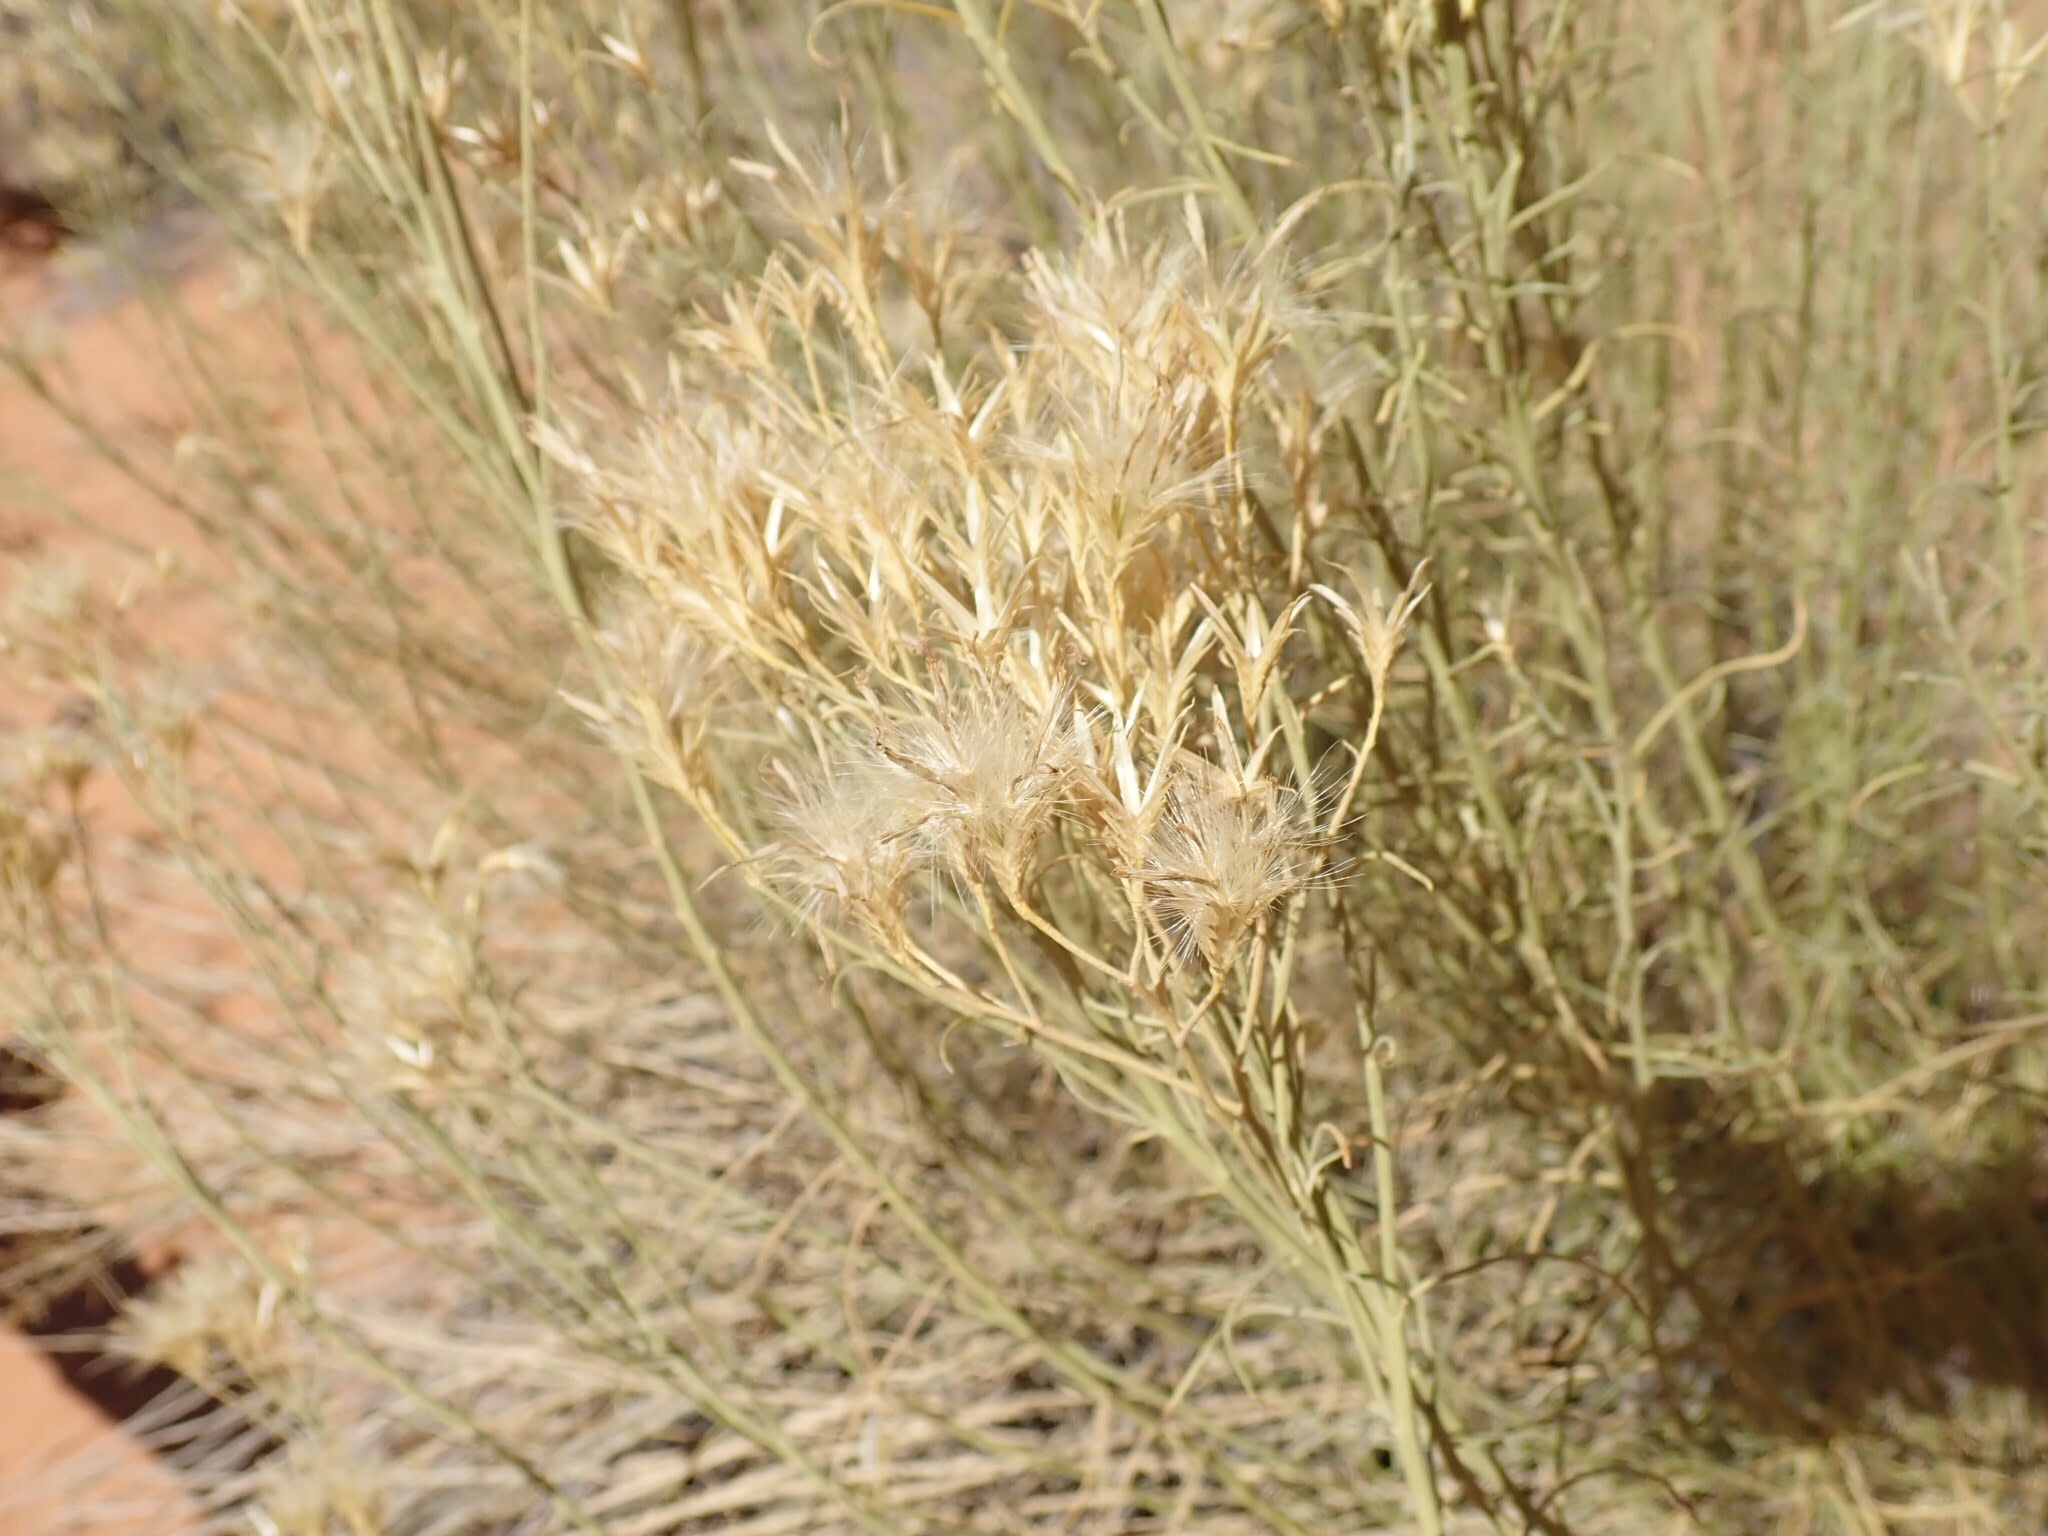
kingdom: Plantae
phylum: Tracheophyta
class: Magnoliopsida
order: Asterales
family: Asteraceae
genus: Ericameria
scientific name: Ericameria nauseosa
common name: Rubber rabbitbrush
